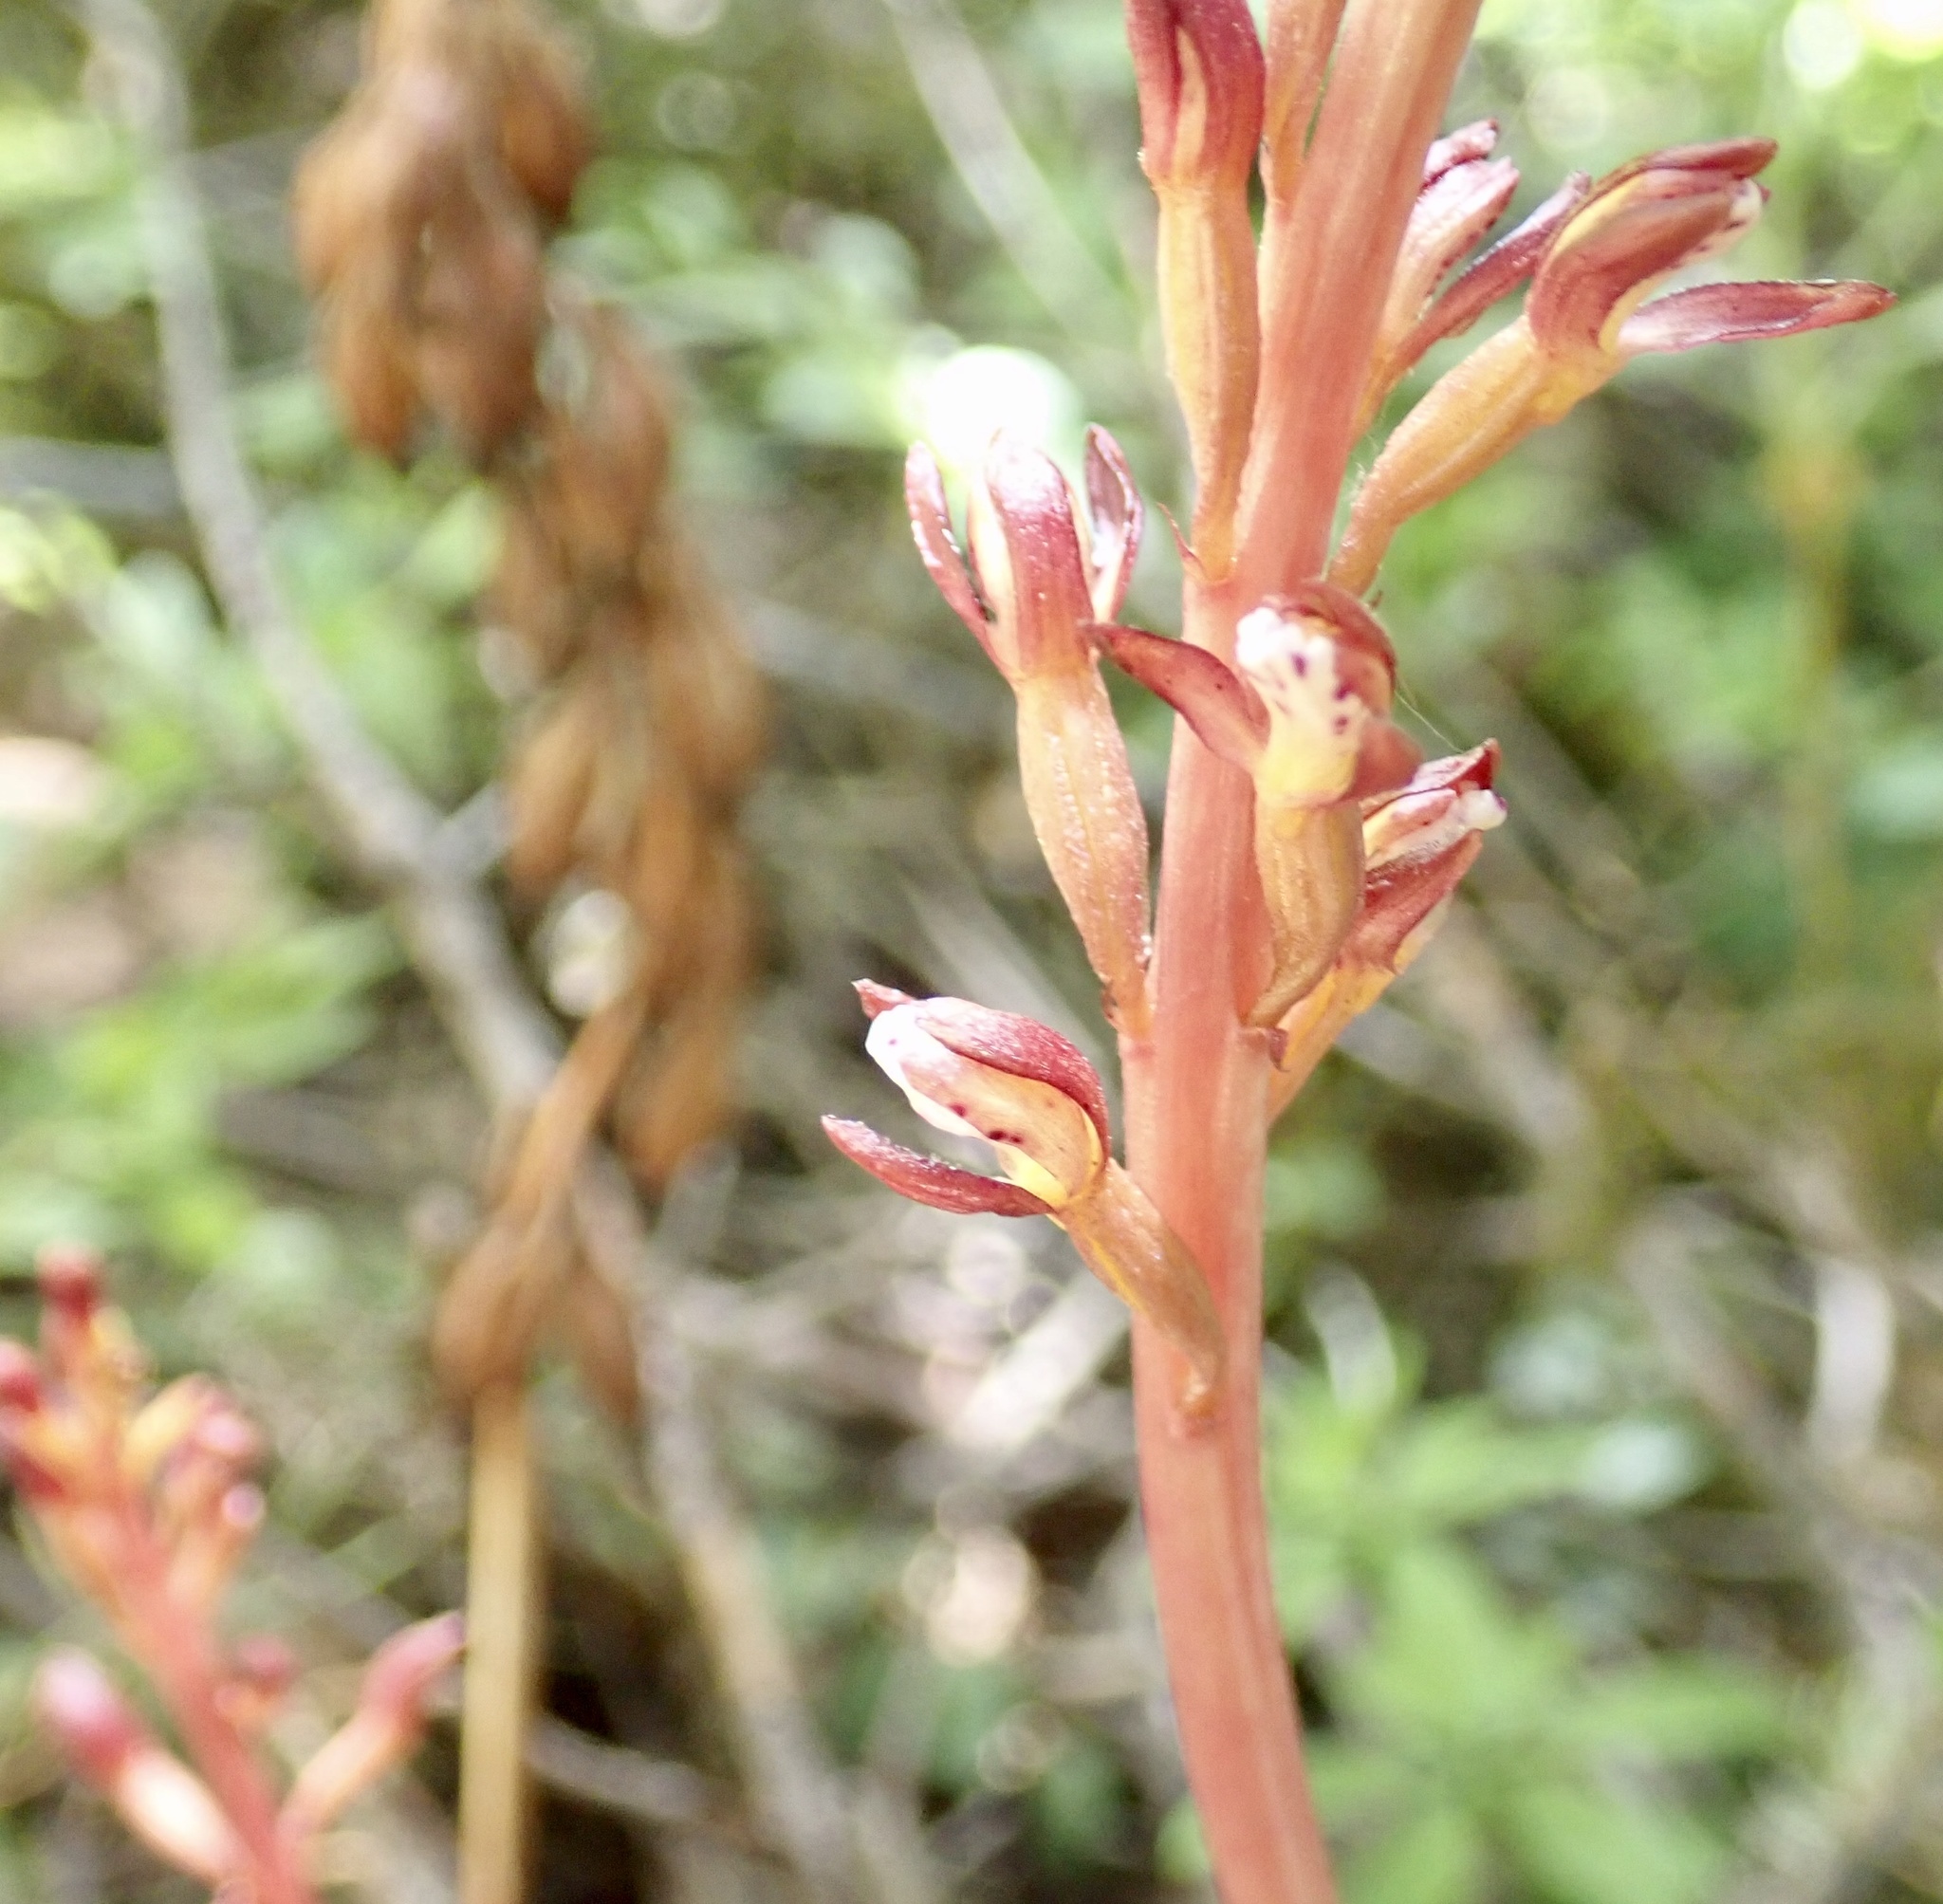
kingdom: Plantae
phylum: Tracheophyta
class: Liliopsida
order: Asparagales
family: Orchidaceae
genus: Corallorhiza
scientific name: Corallorhiza maculata
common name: Spotted coralroot
